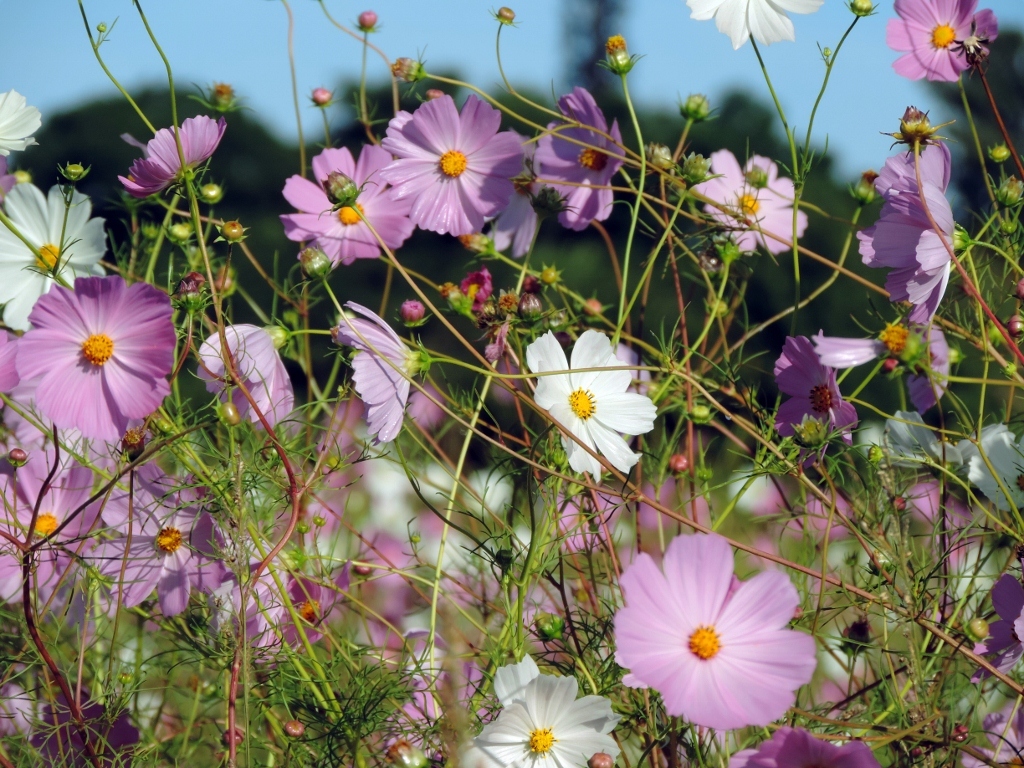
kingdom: Plantae
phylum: Tracheophyta
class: Magnoliopsida
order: Asterales
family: Asteraceae
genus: Cosmos
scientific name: Cosmos bipinnatus
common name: Garden cosmos
